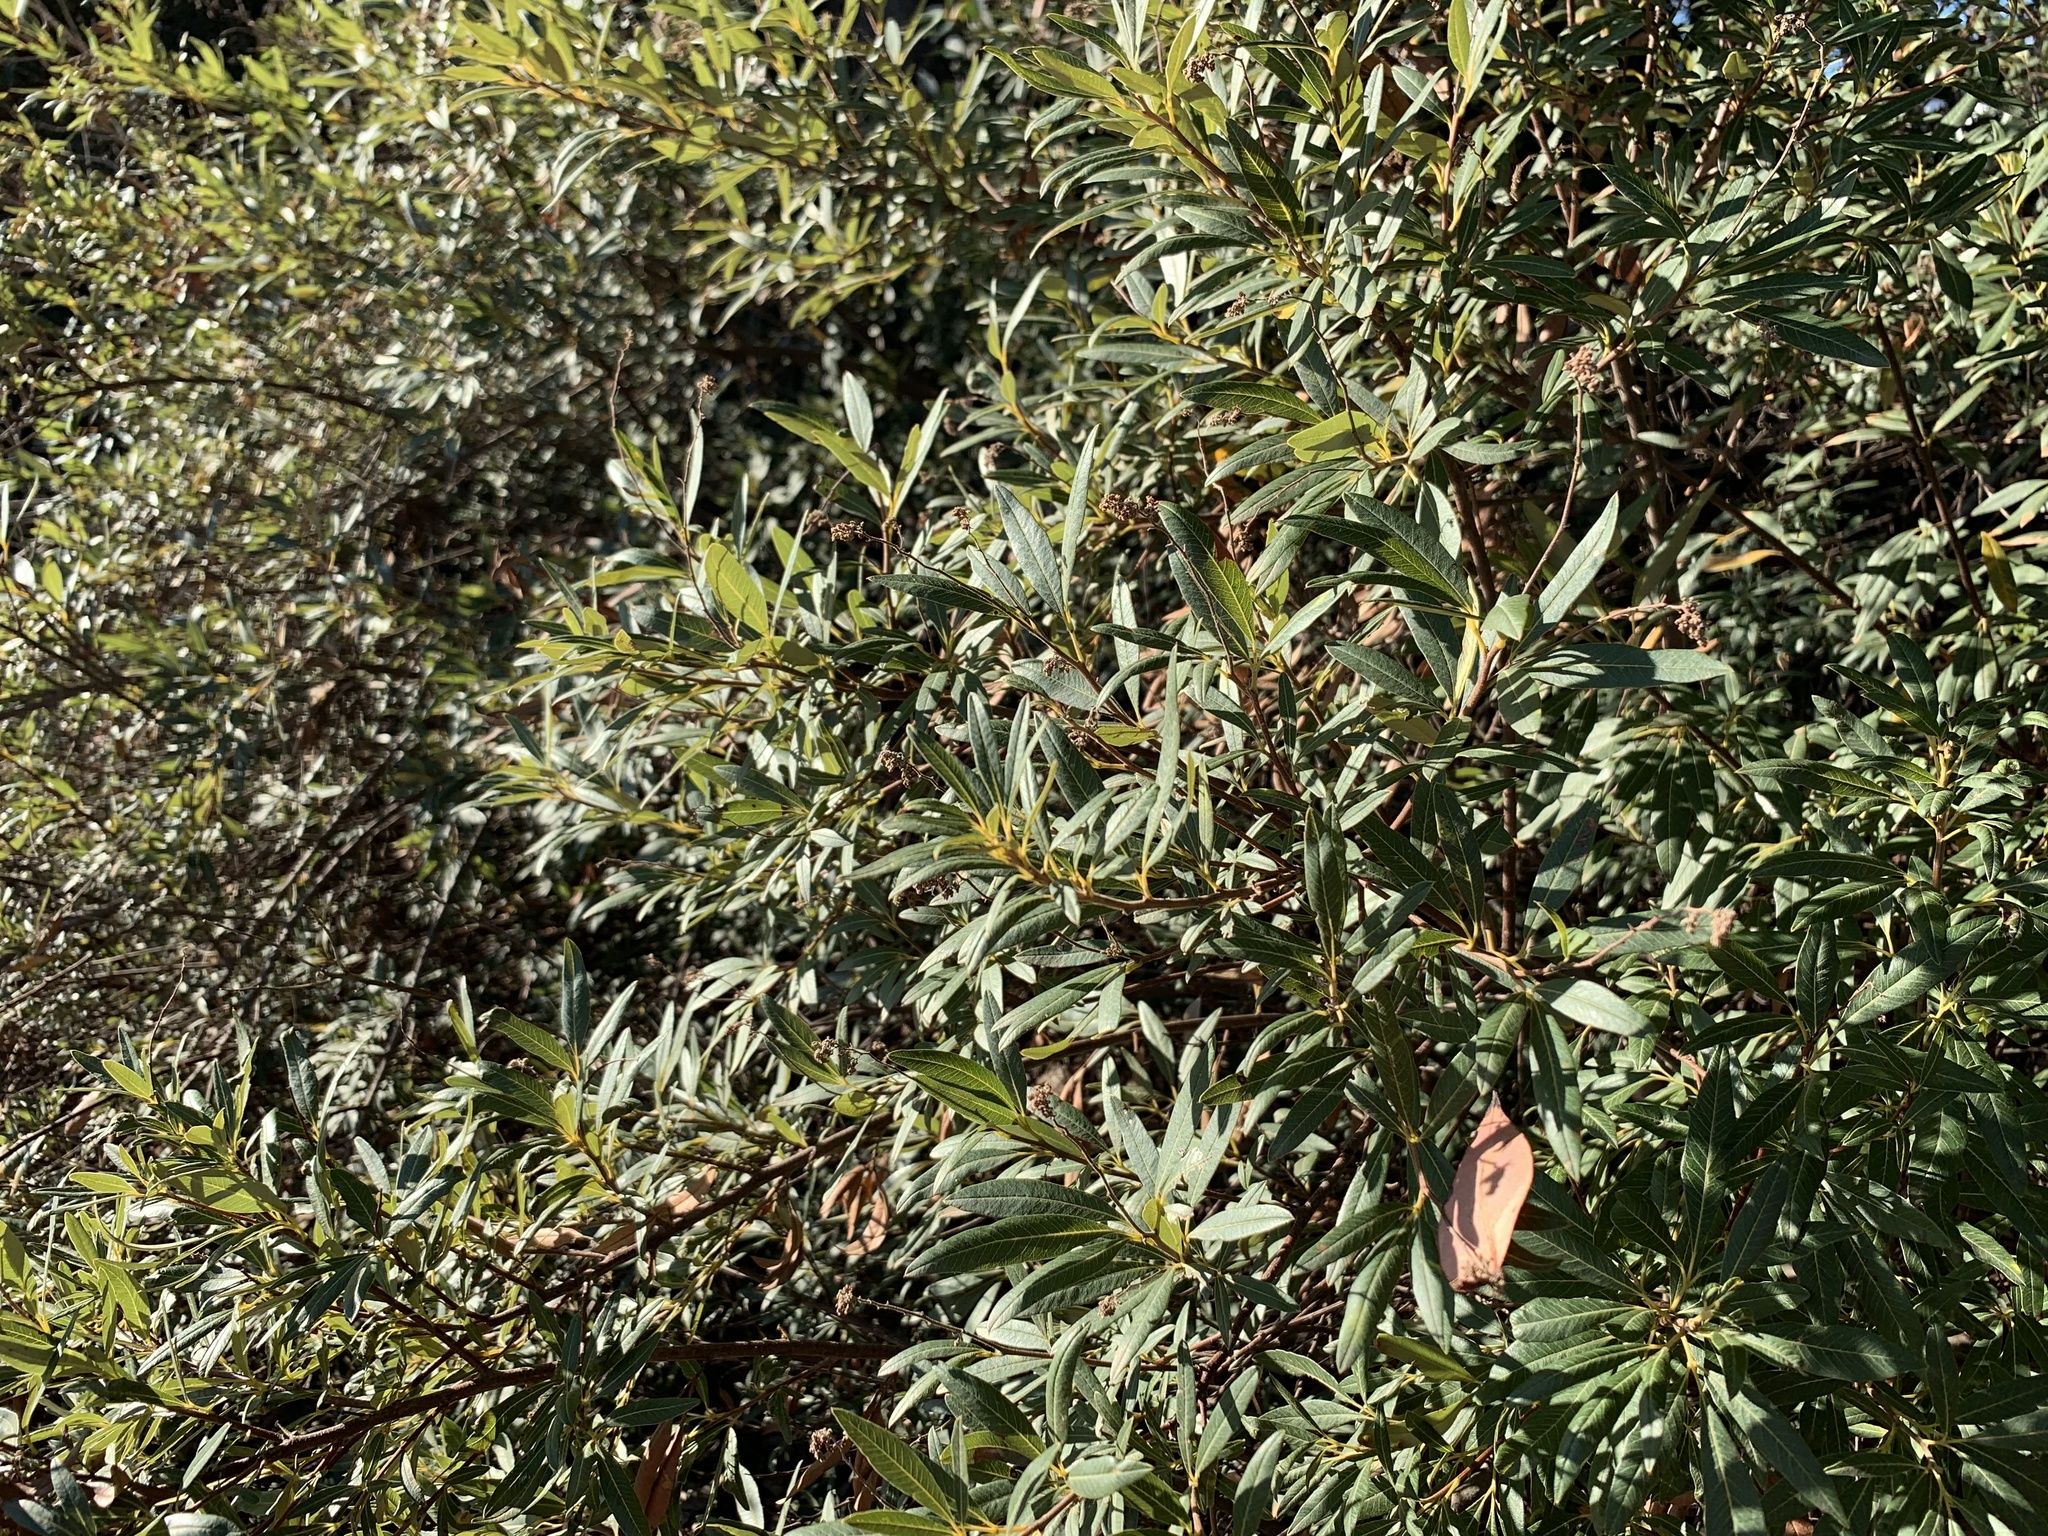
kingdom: Plantae
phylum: Tracheophyta
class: Magnoliopsida
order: Sapindales
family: Anacardiaceae
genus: Searsia
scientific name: Searsia angustifolia
